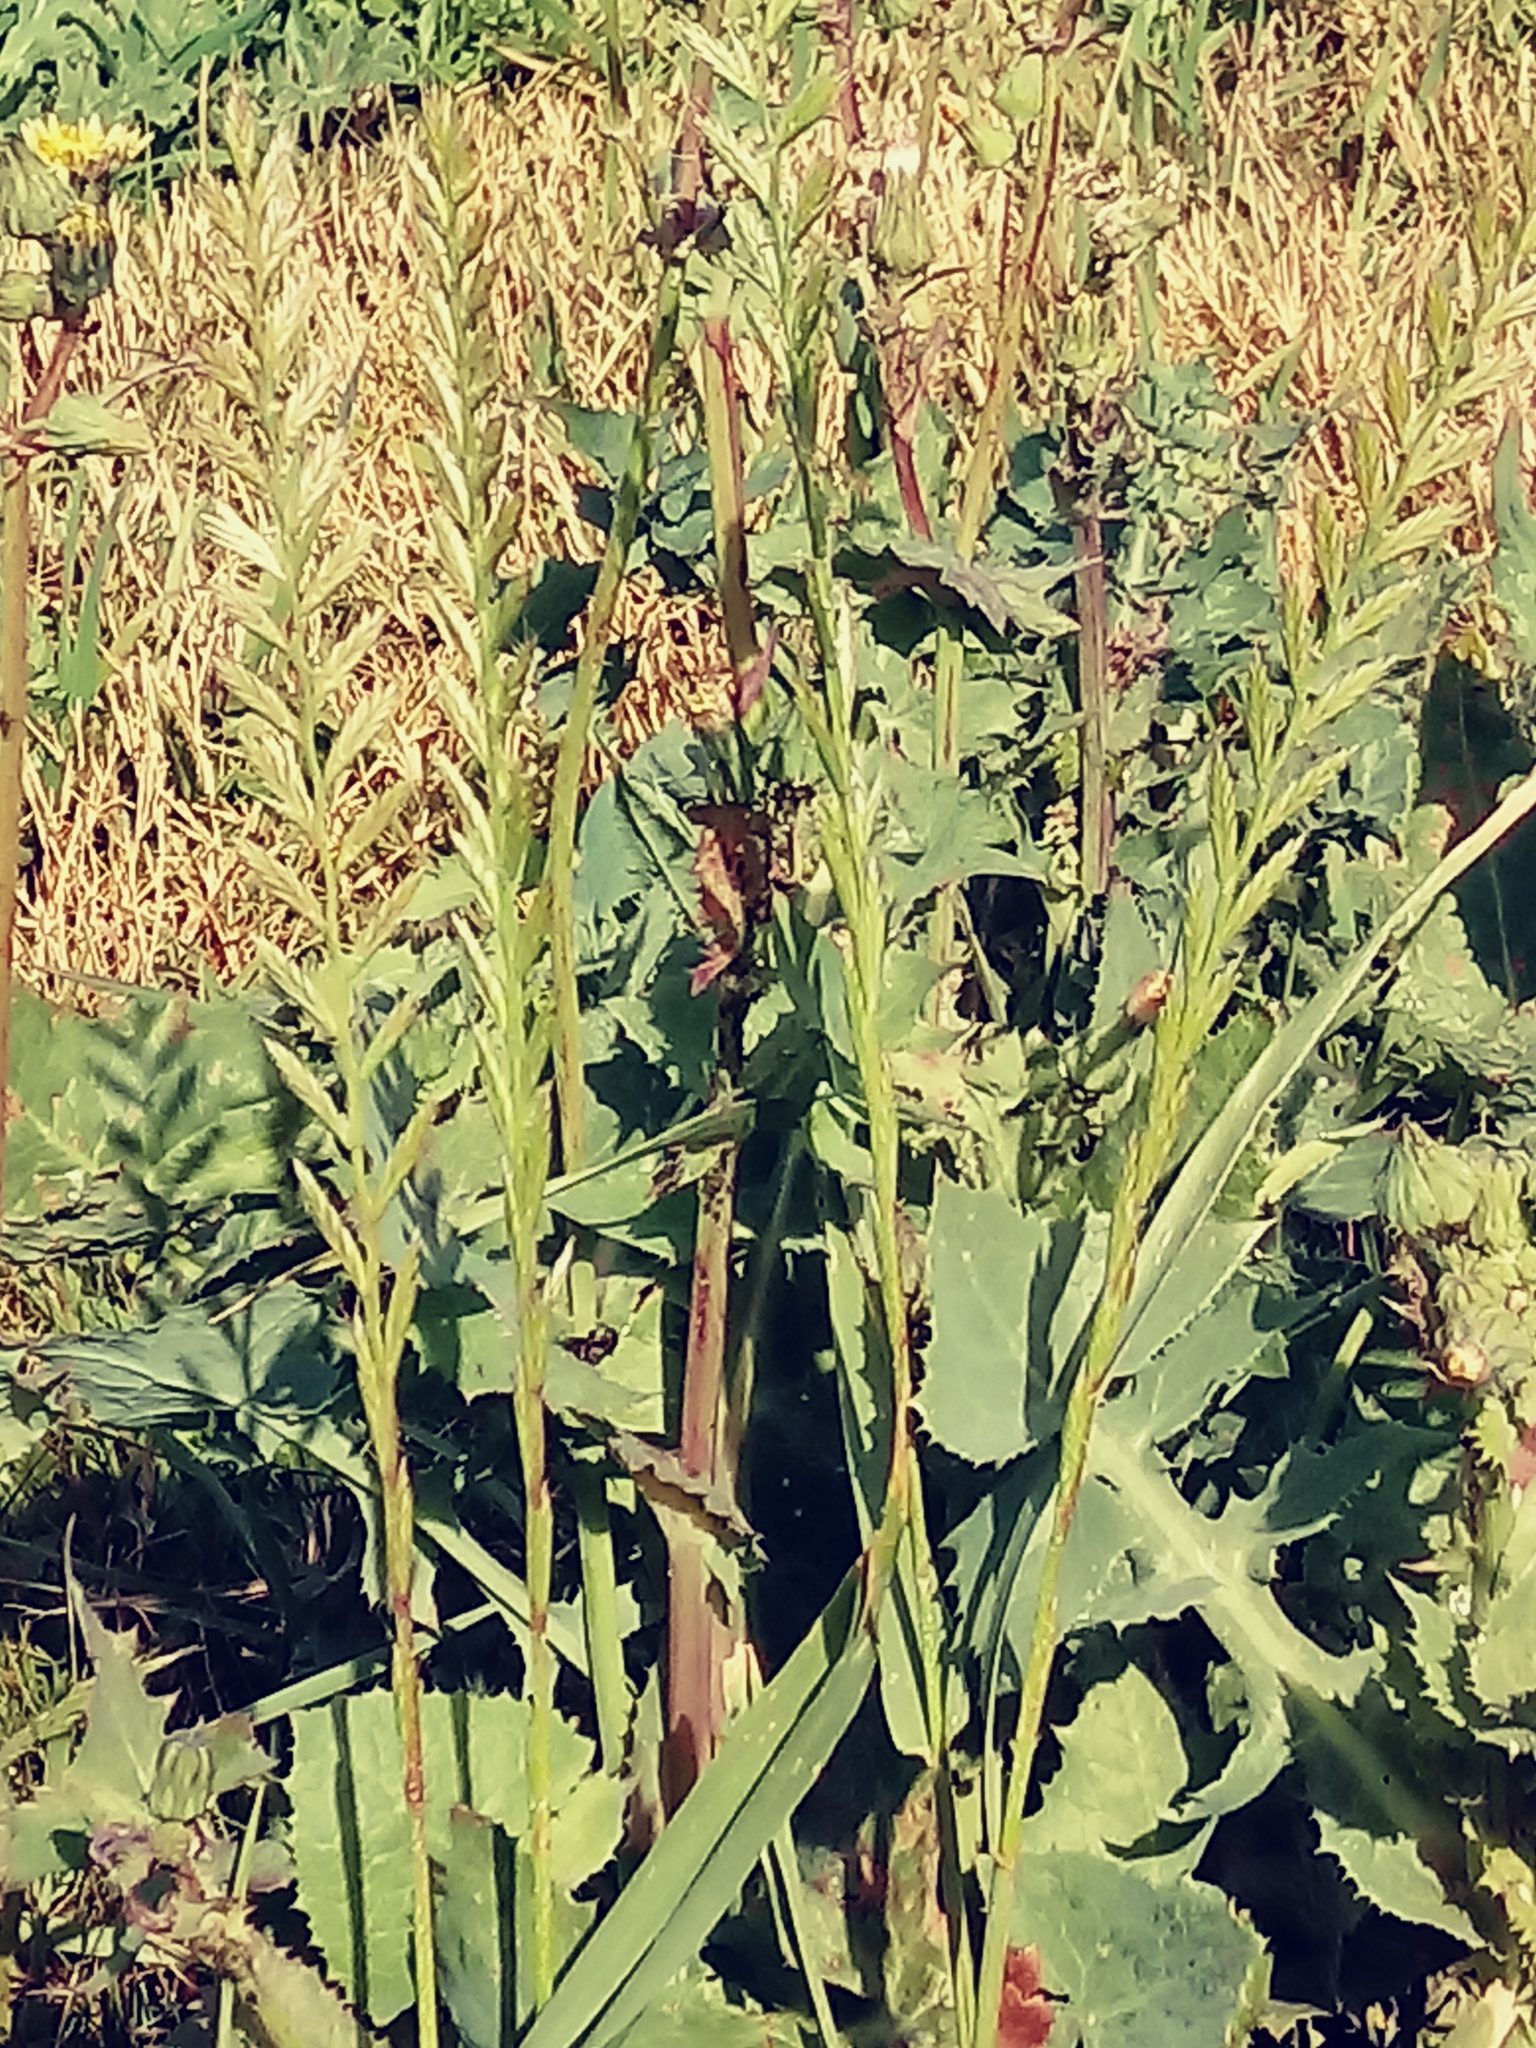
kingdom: Plantae
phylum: Tracheophyta
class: Liliopsida
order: Poales
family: Poaceae
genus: Lolium
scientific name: Lolium multiflorum
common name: Annual ryegrass
